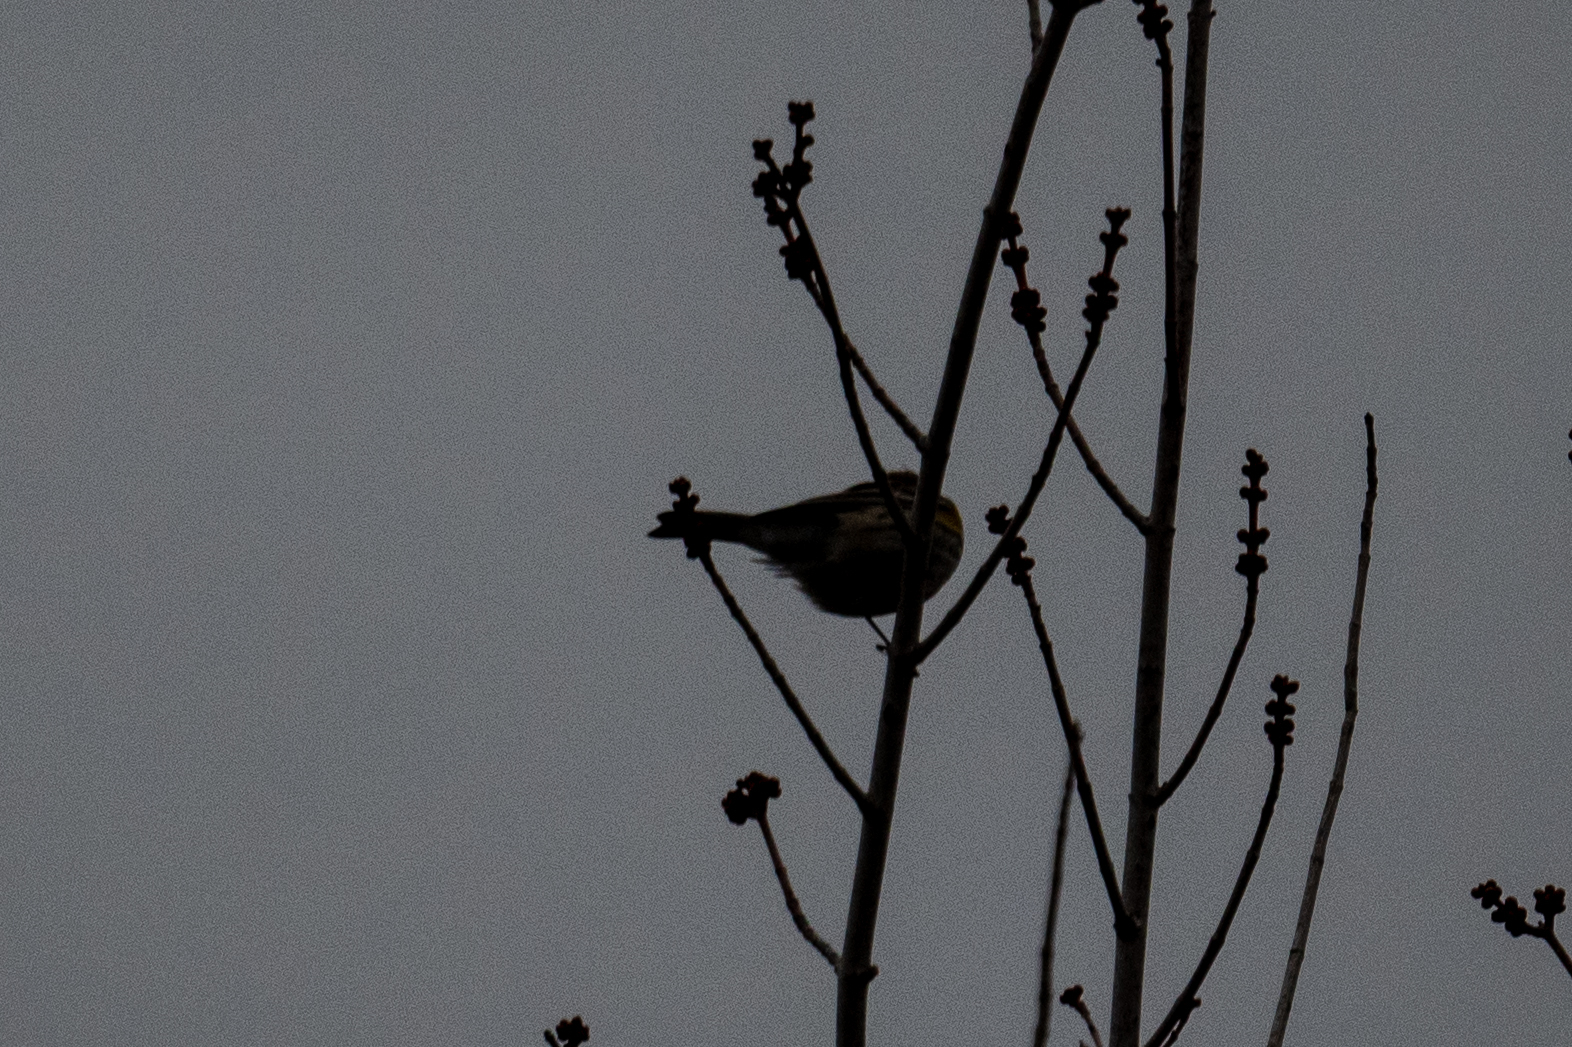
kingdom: Animalia
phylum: Chordata
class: Aves
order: Passeriformes
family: Parulidae
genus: Setophaga
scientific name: Setophaga coronata
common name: Myrtle warbler
